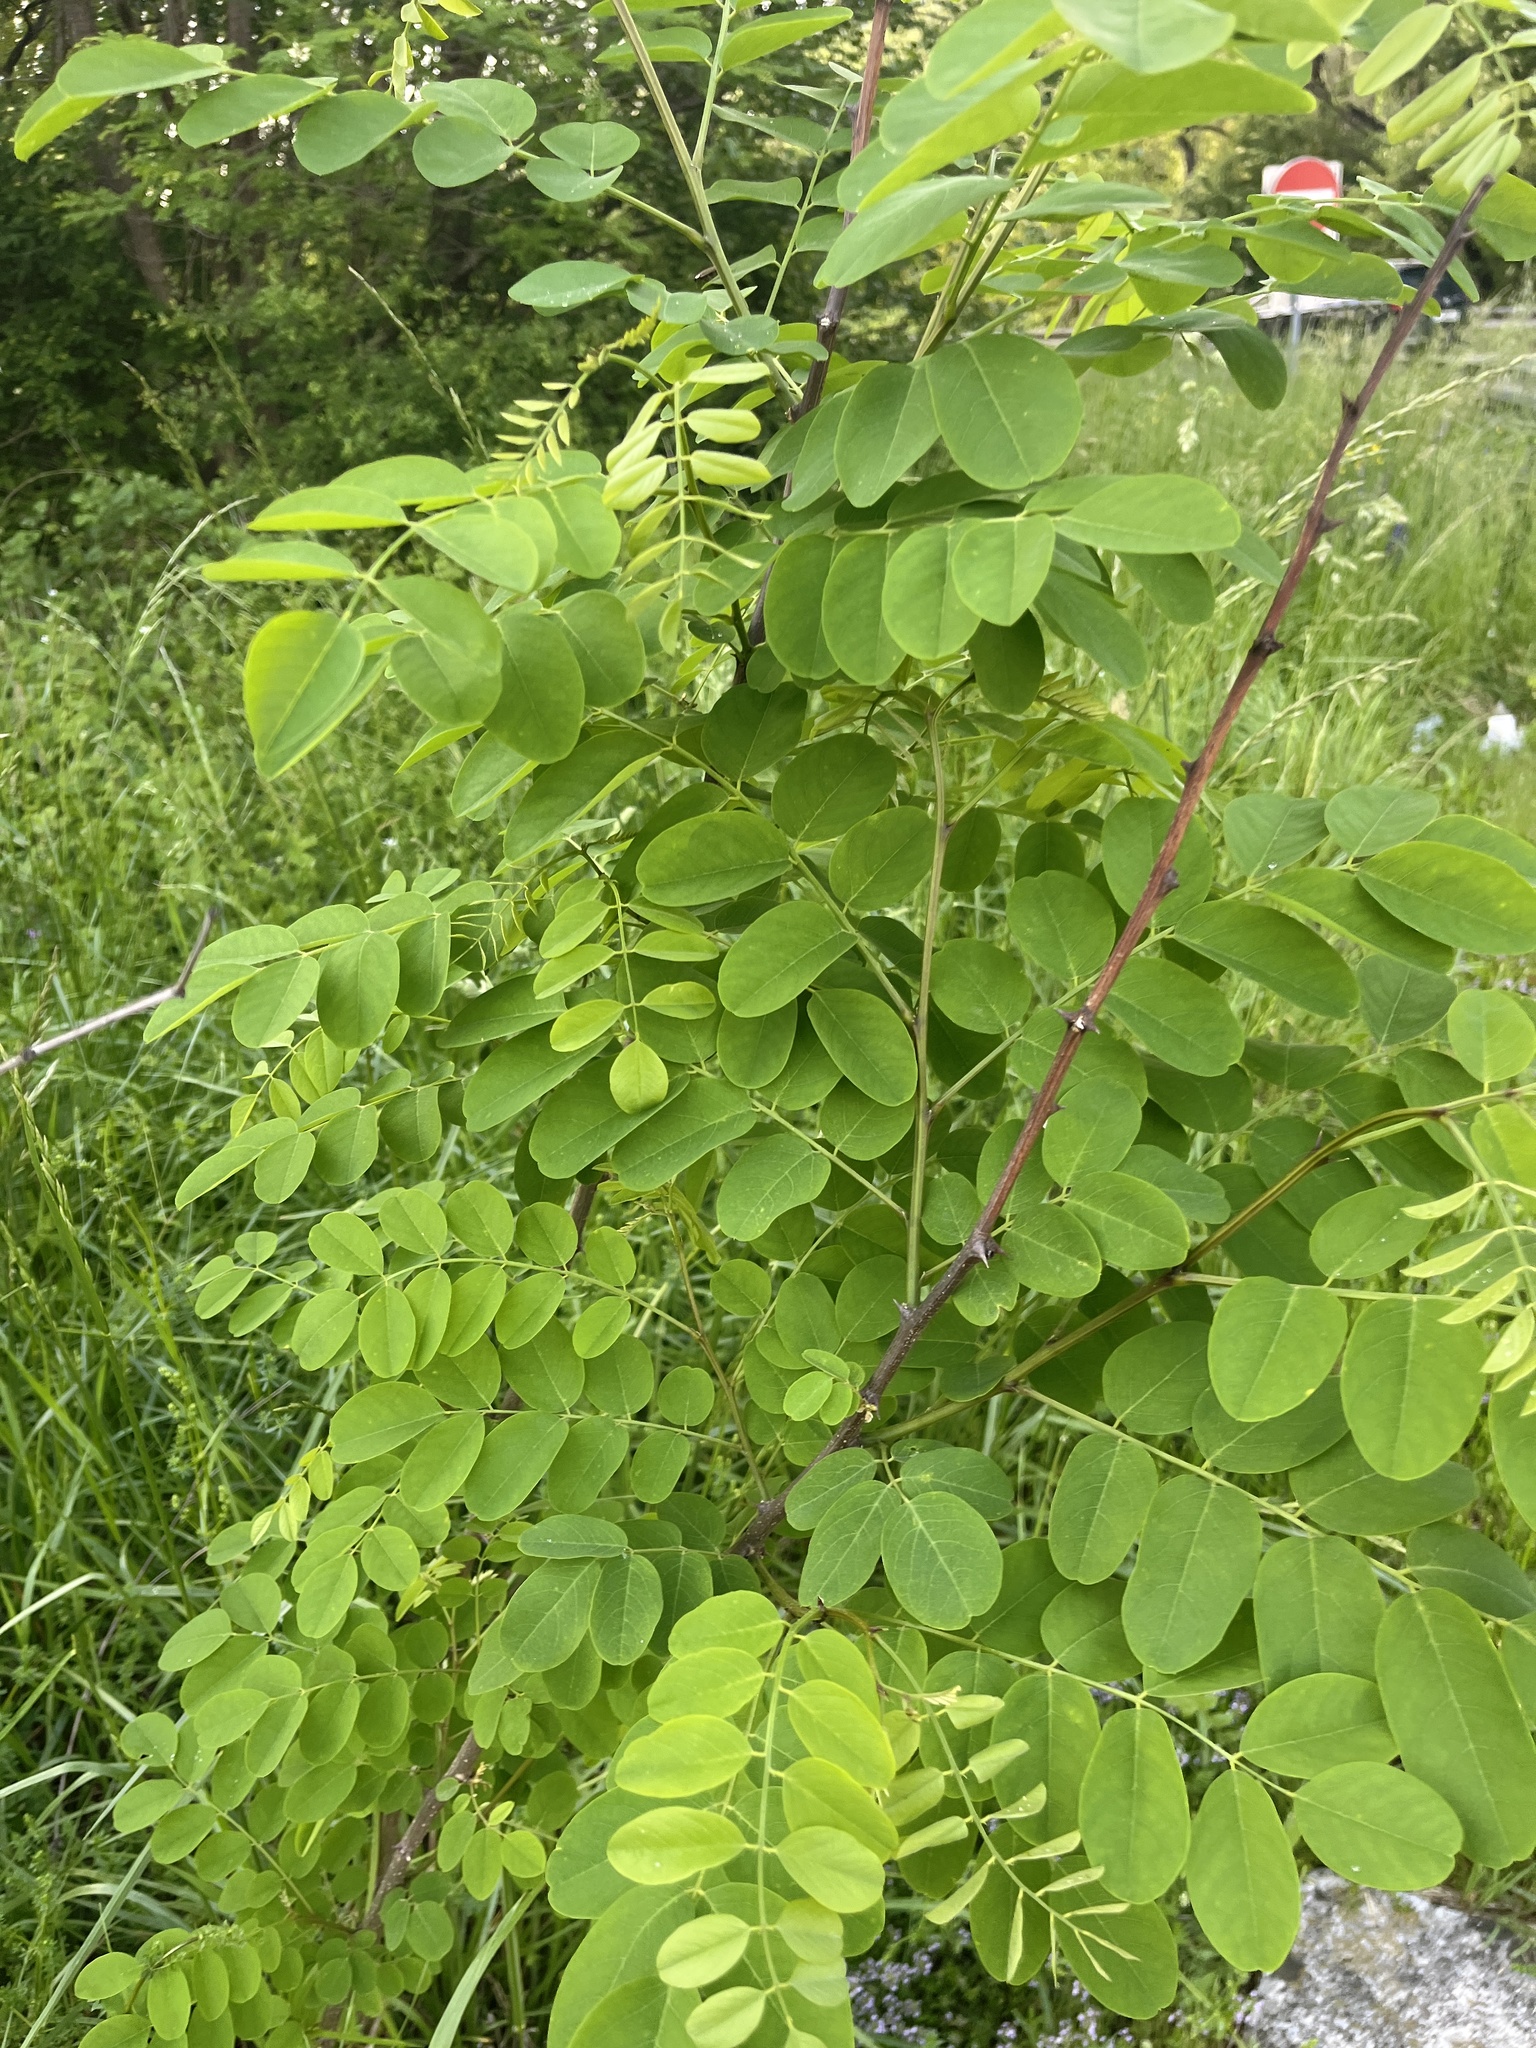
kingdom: Plantae
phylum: Tracheophyta
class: Magnoliopsida
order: Fabales
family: Fabaceae
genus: Robinia
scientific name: Robinia pseudoacacia
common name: Black locust
